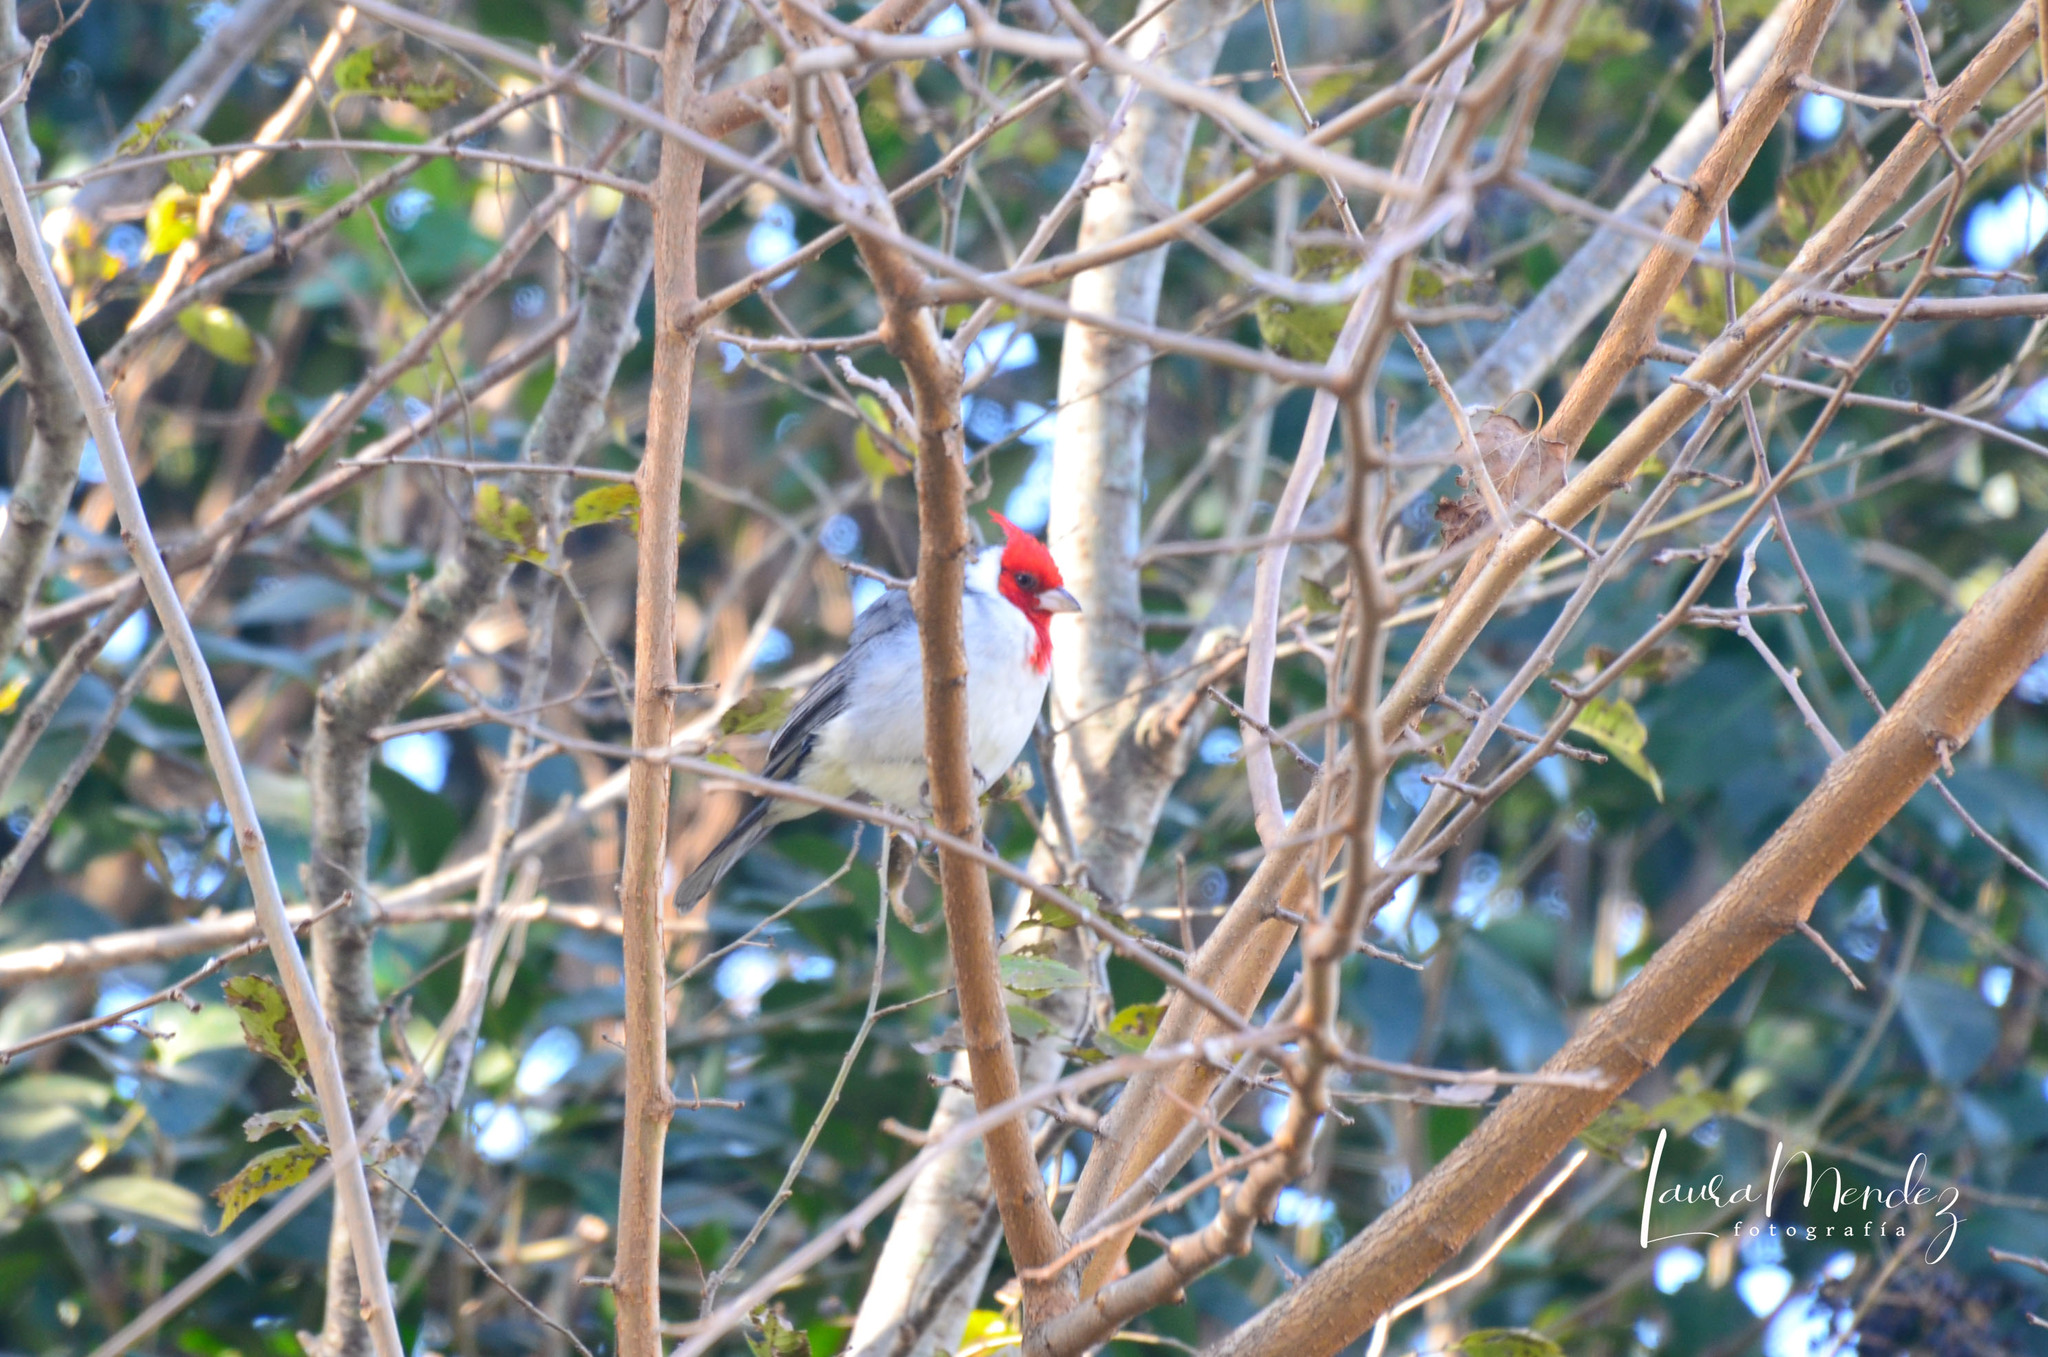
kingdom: Animalia
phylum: Chordata
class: Aves
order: Passeriformes
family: Thraupidae
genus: Paroaria
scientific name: Paroaria coronata
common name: Red-crested cardinal
